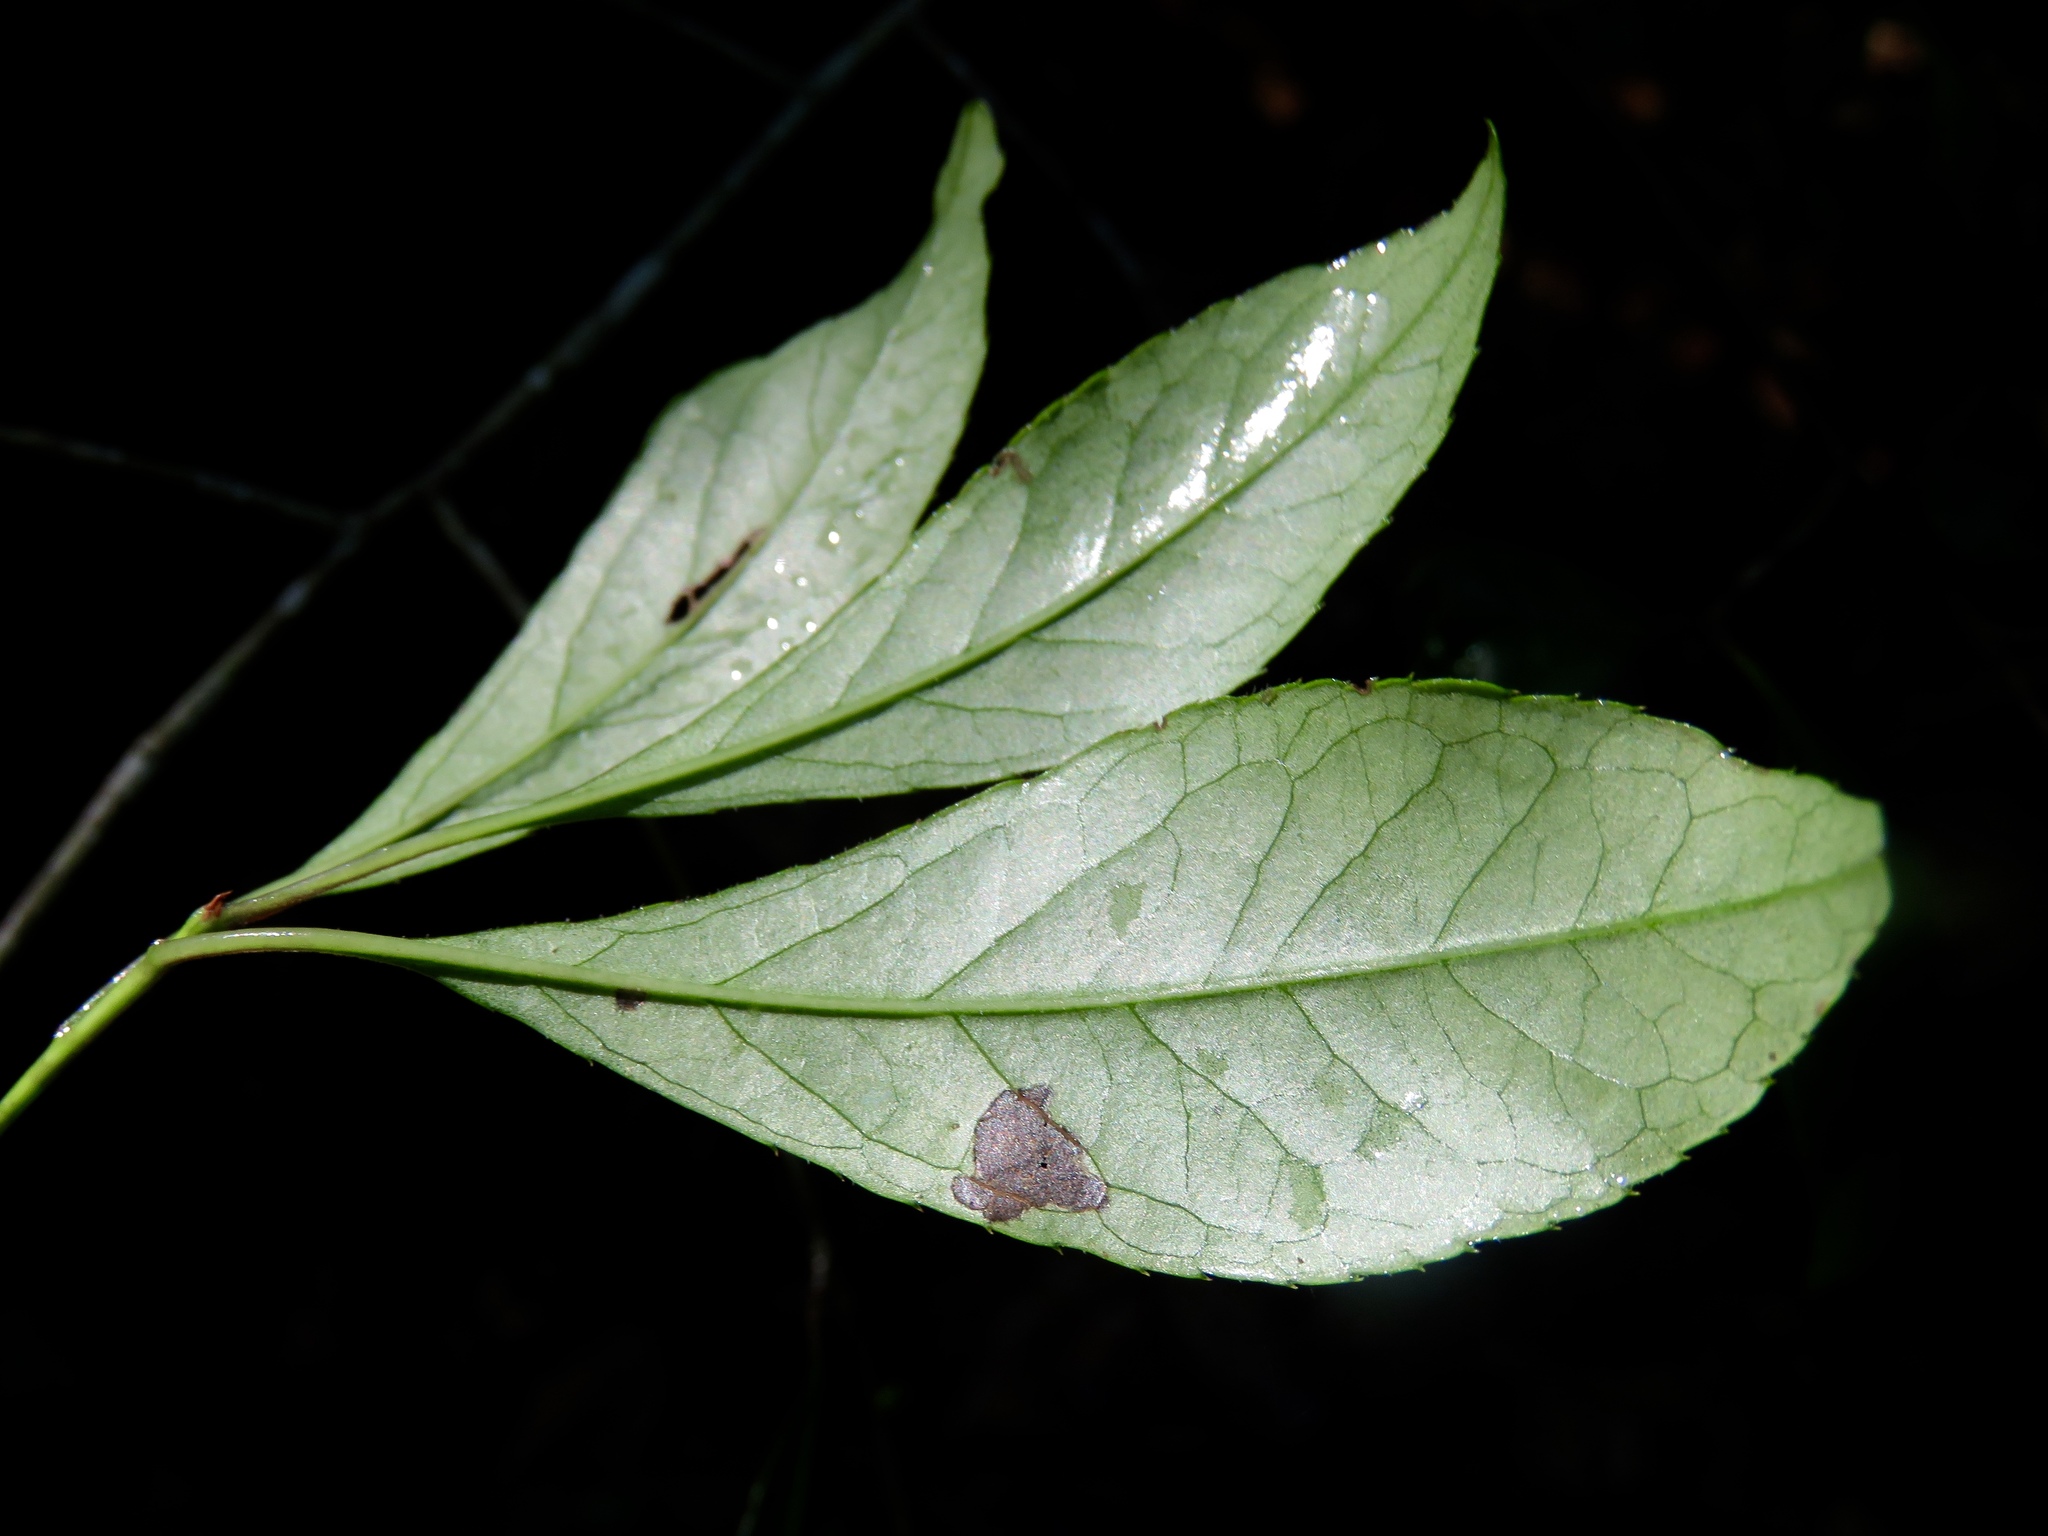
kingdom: Plantae
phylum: Tracheophyta
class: Magnoliopsida
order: Aquifoliales
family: Aquifoliaceae
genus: Ilex
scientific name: Ilex longipes
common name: Georgia holly
